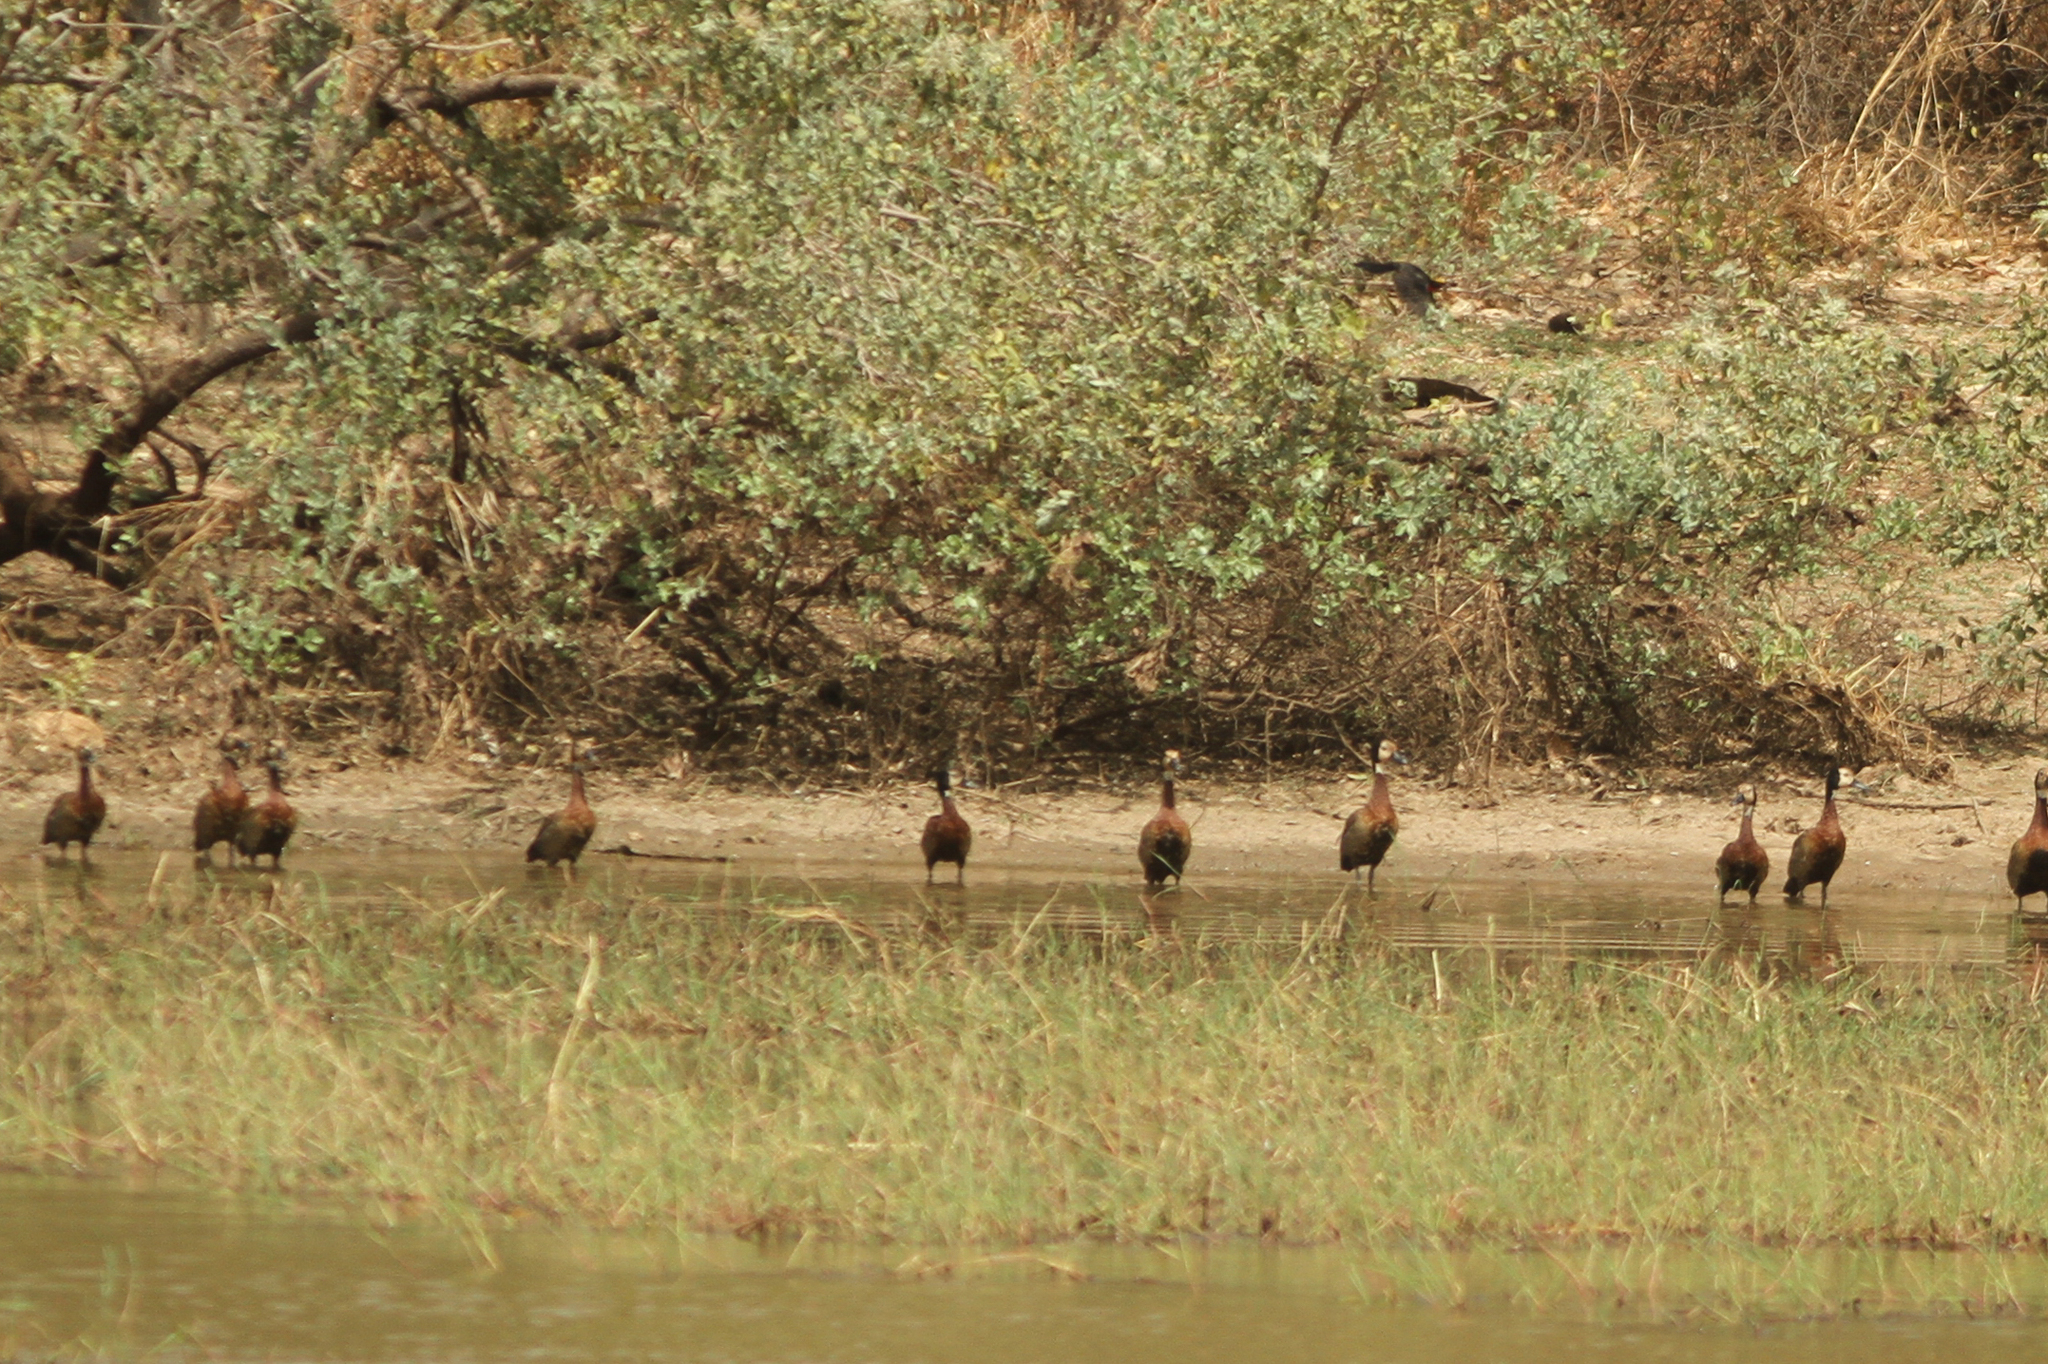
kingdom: Animalia
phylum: Chordata
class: Aves
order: Anseriformes
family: Anatidae
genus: Dendrocygna
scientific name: Dendrocygna viduata
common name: White-faced whistling duck
